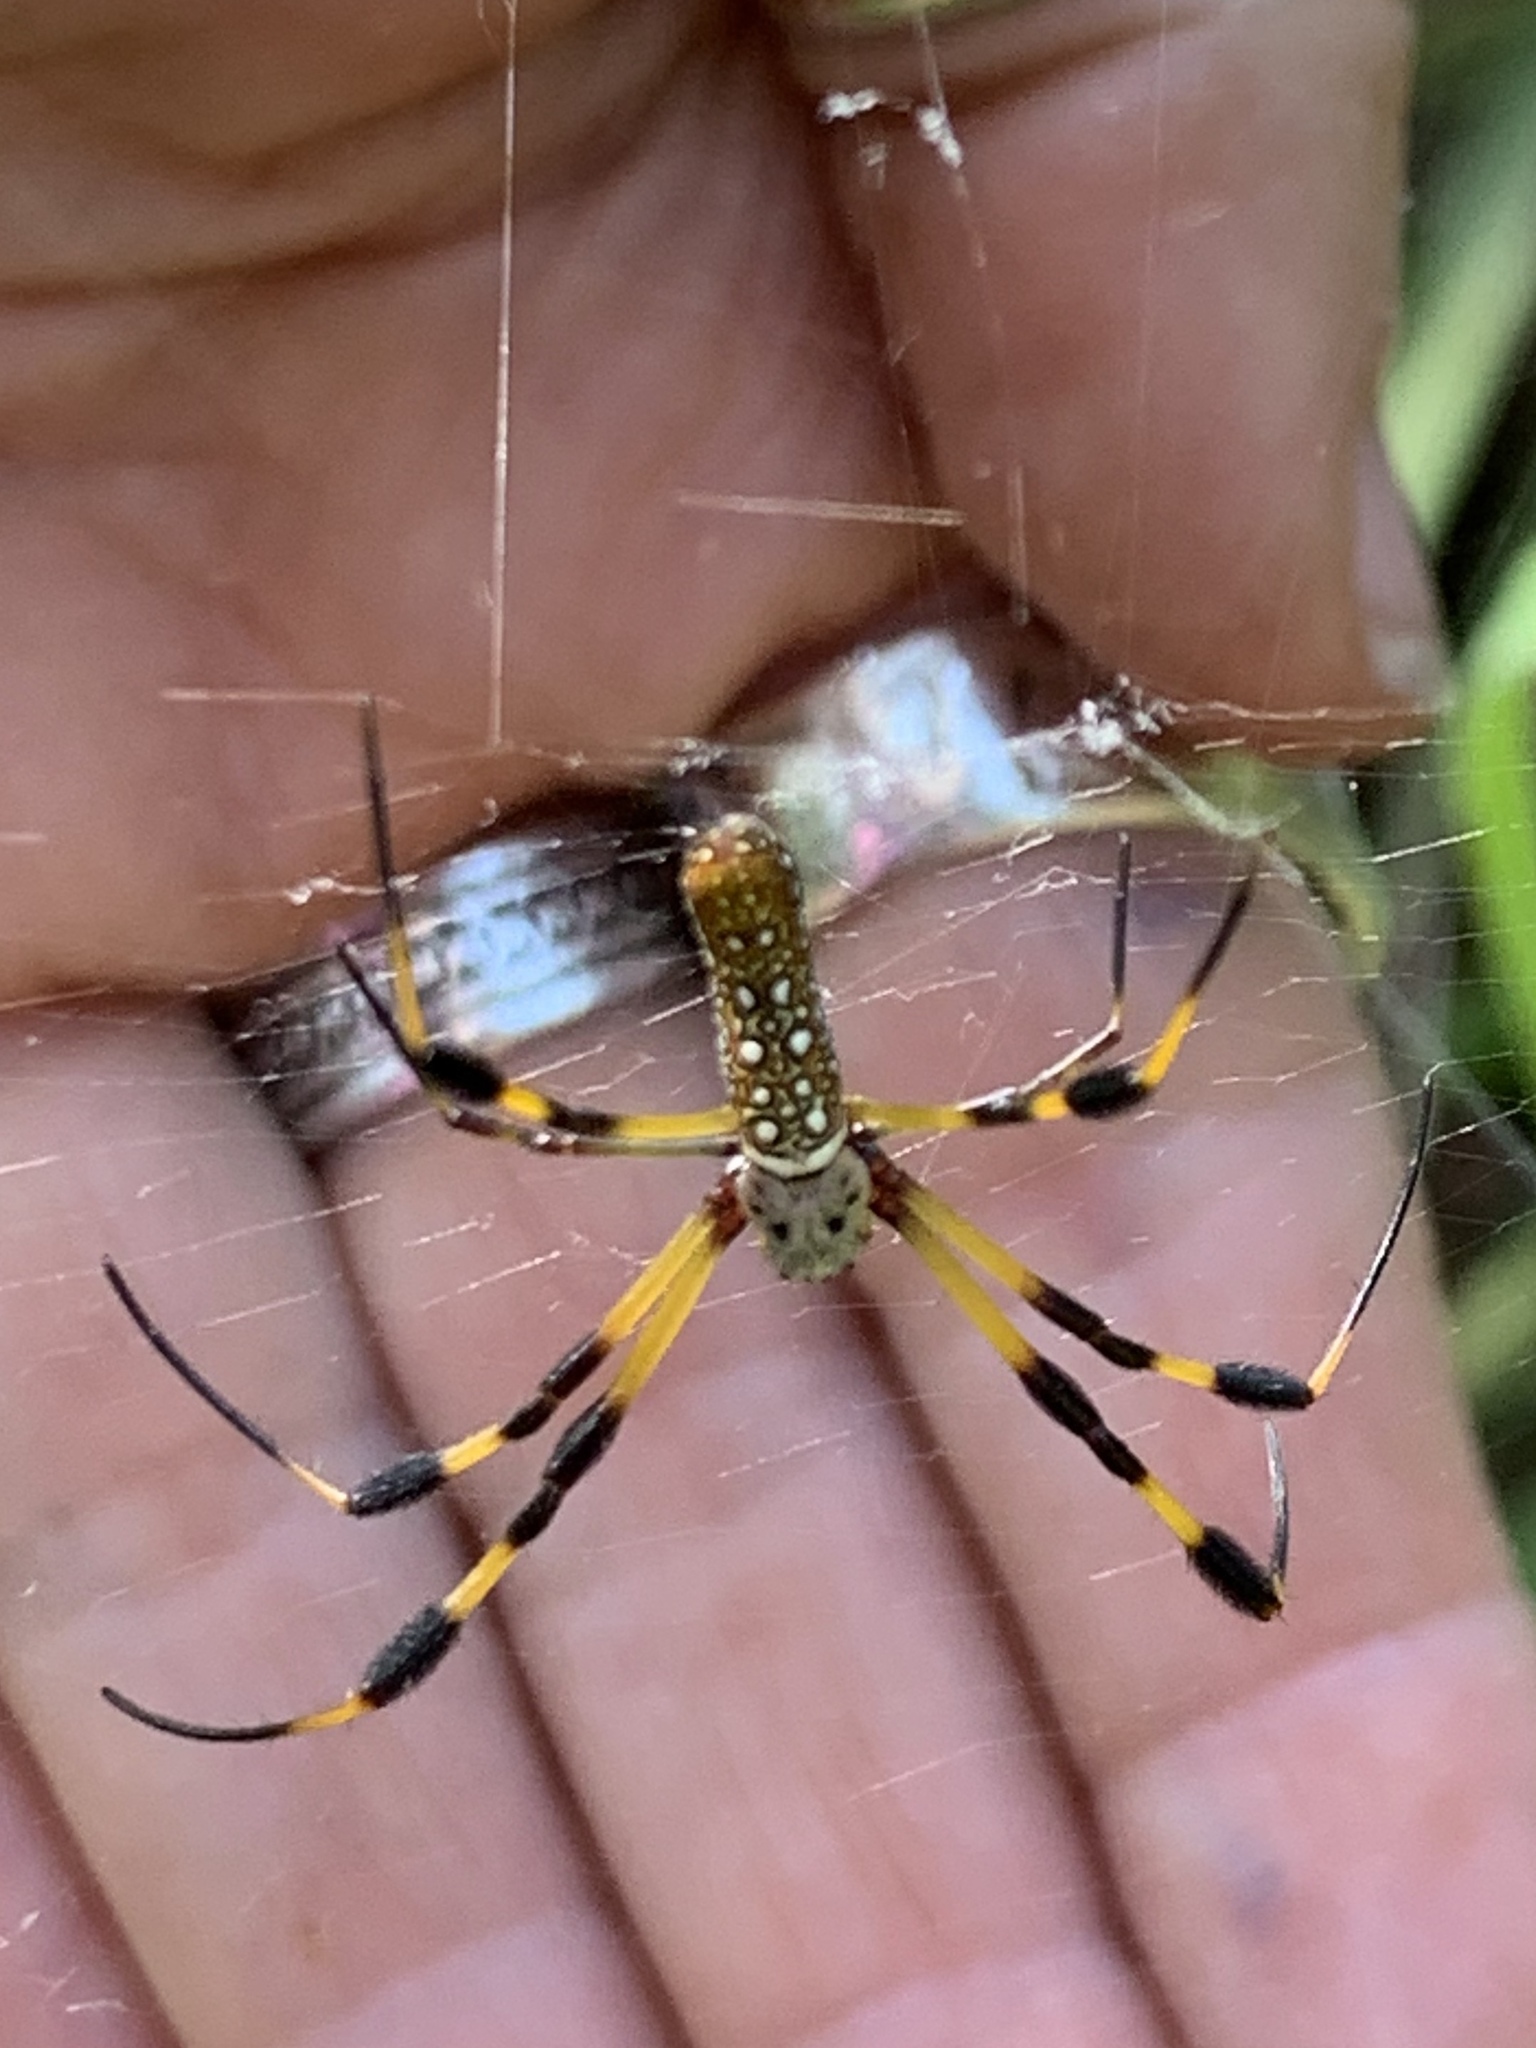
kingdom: Animalia
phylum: Arthropoda
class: Arachnida
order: Araneae
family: Araneidae
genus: Trichonephila
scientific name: Trichonephila clavipes
